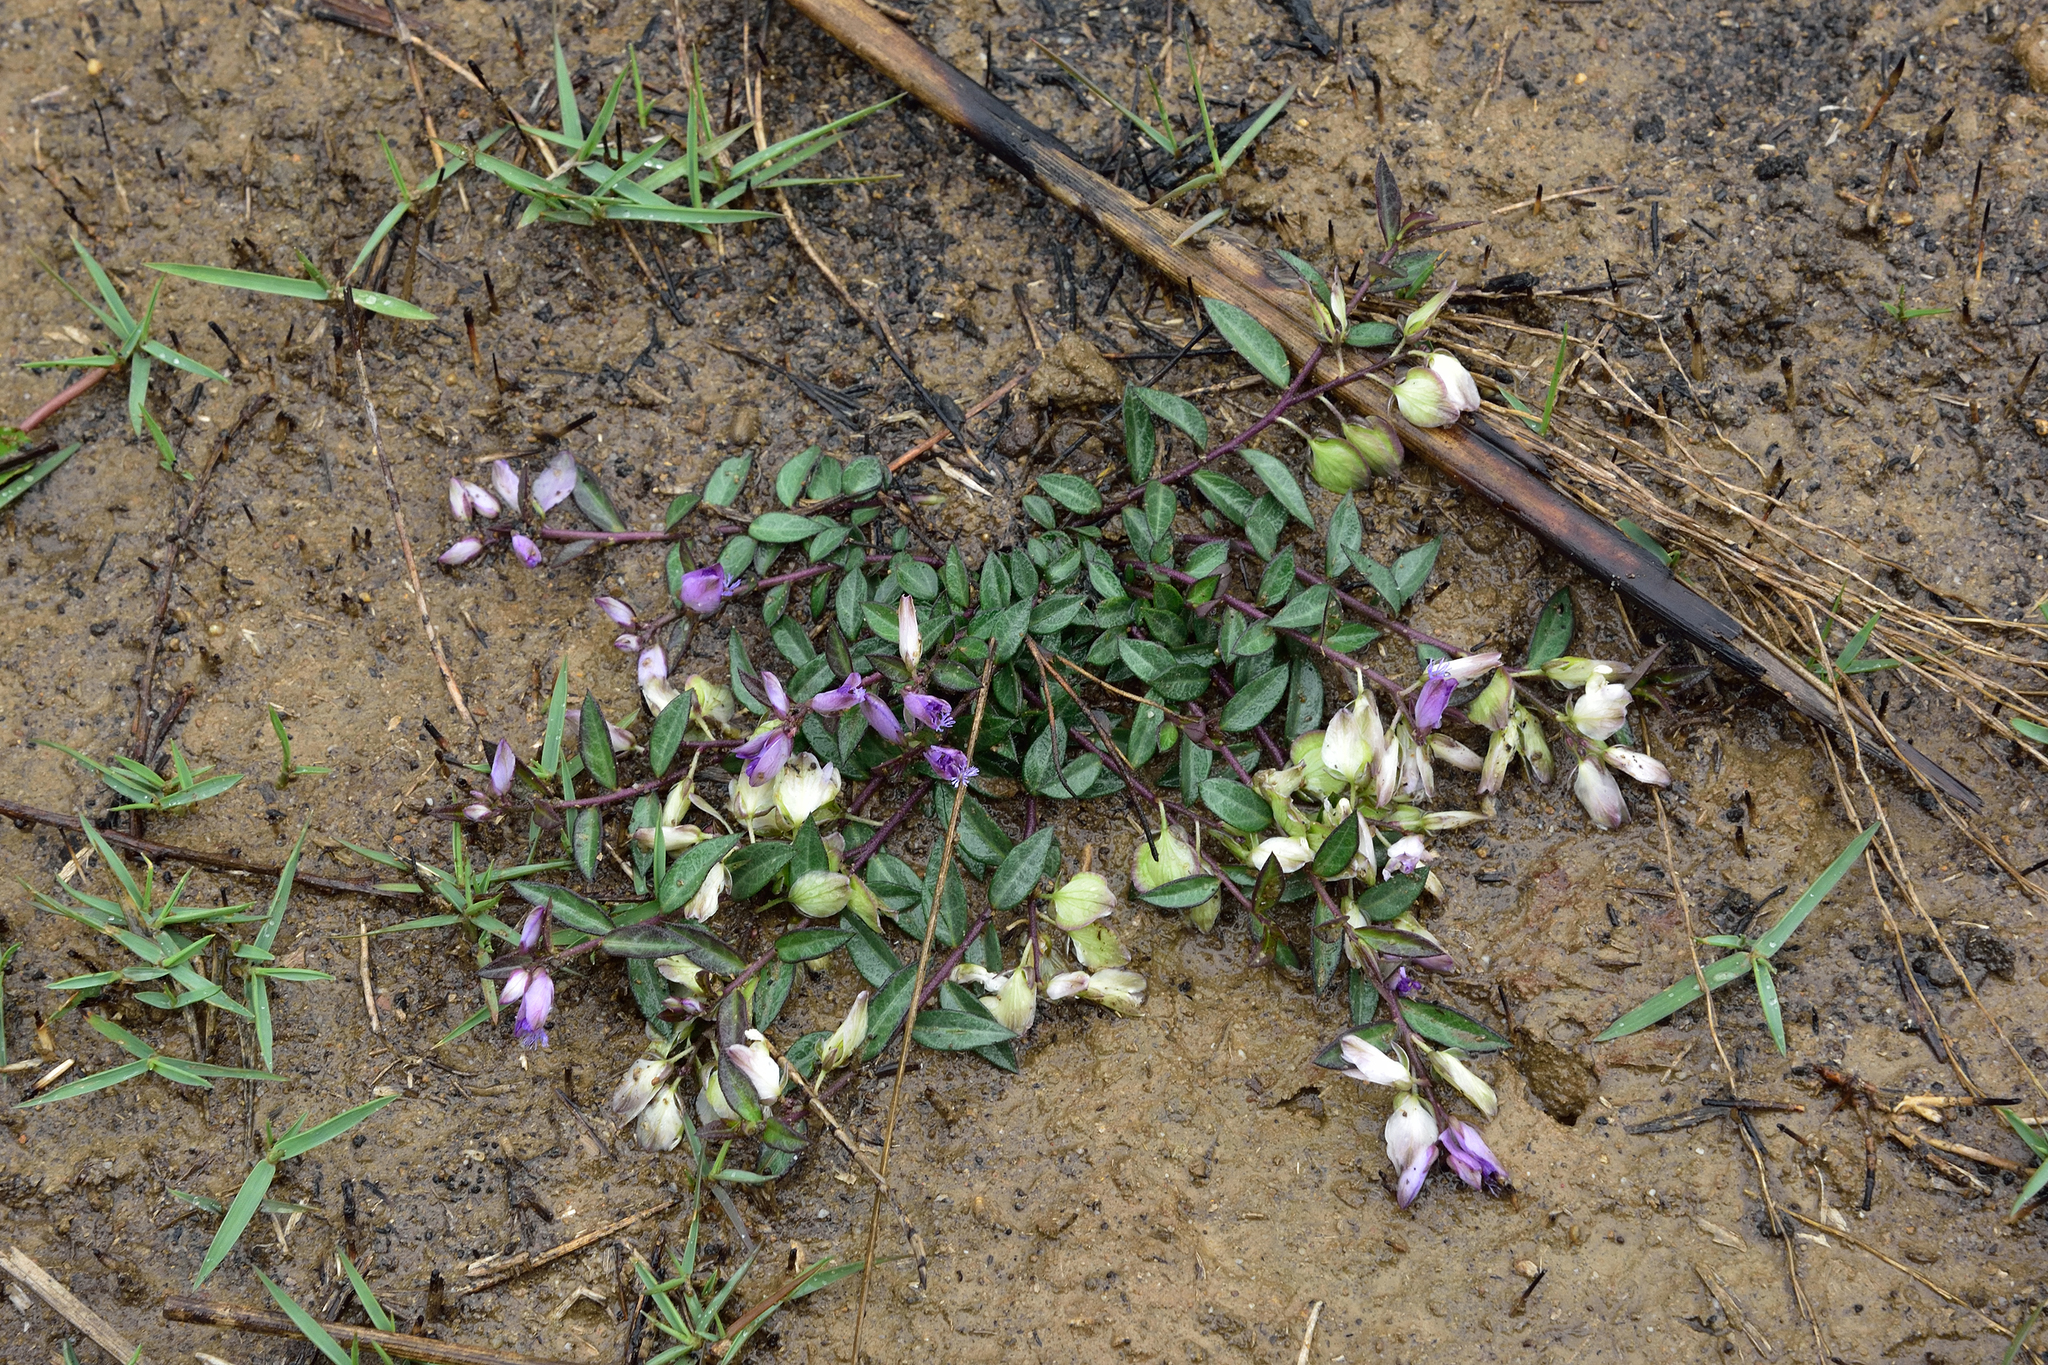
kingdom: Plantae
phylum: Tracheophyta
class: Magnoliopsida
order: Fabales
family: Polygalaceae
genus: Polygala
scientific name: Polygala japonica
